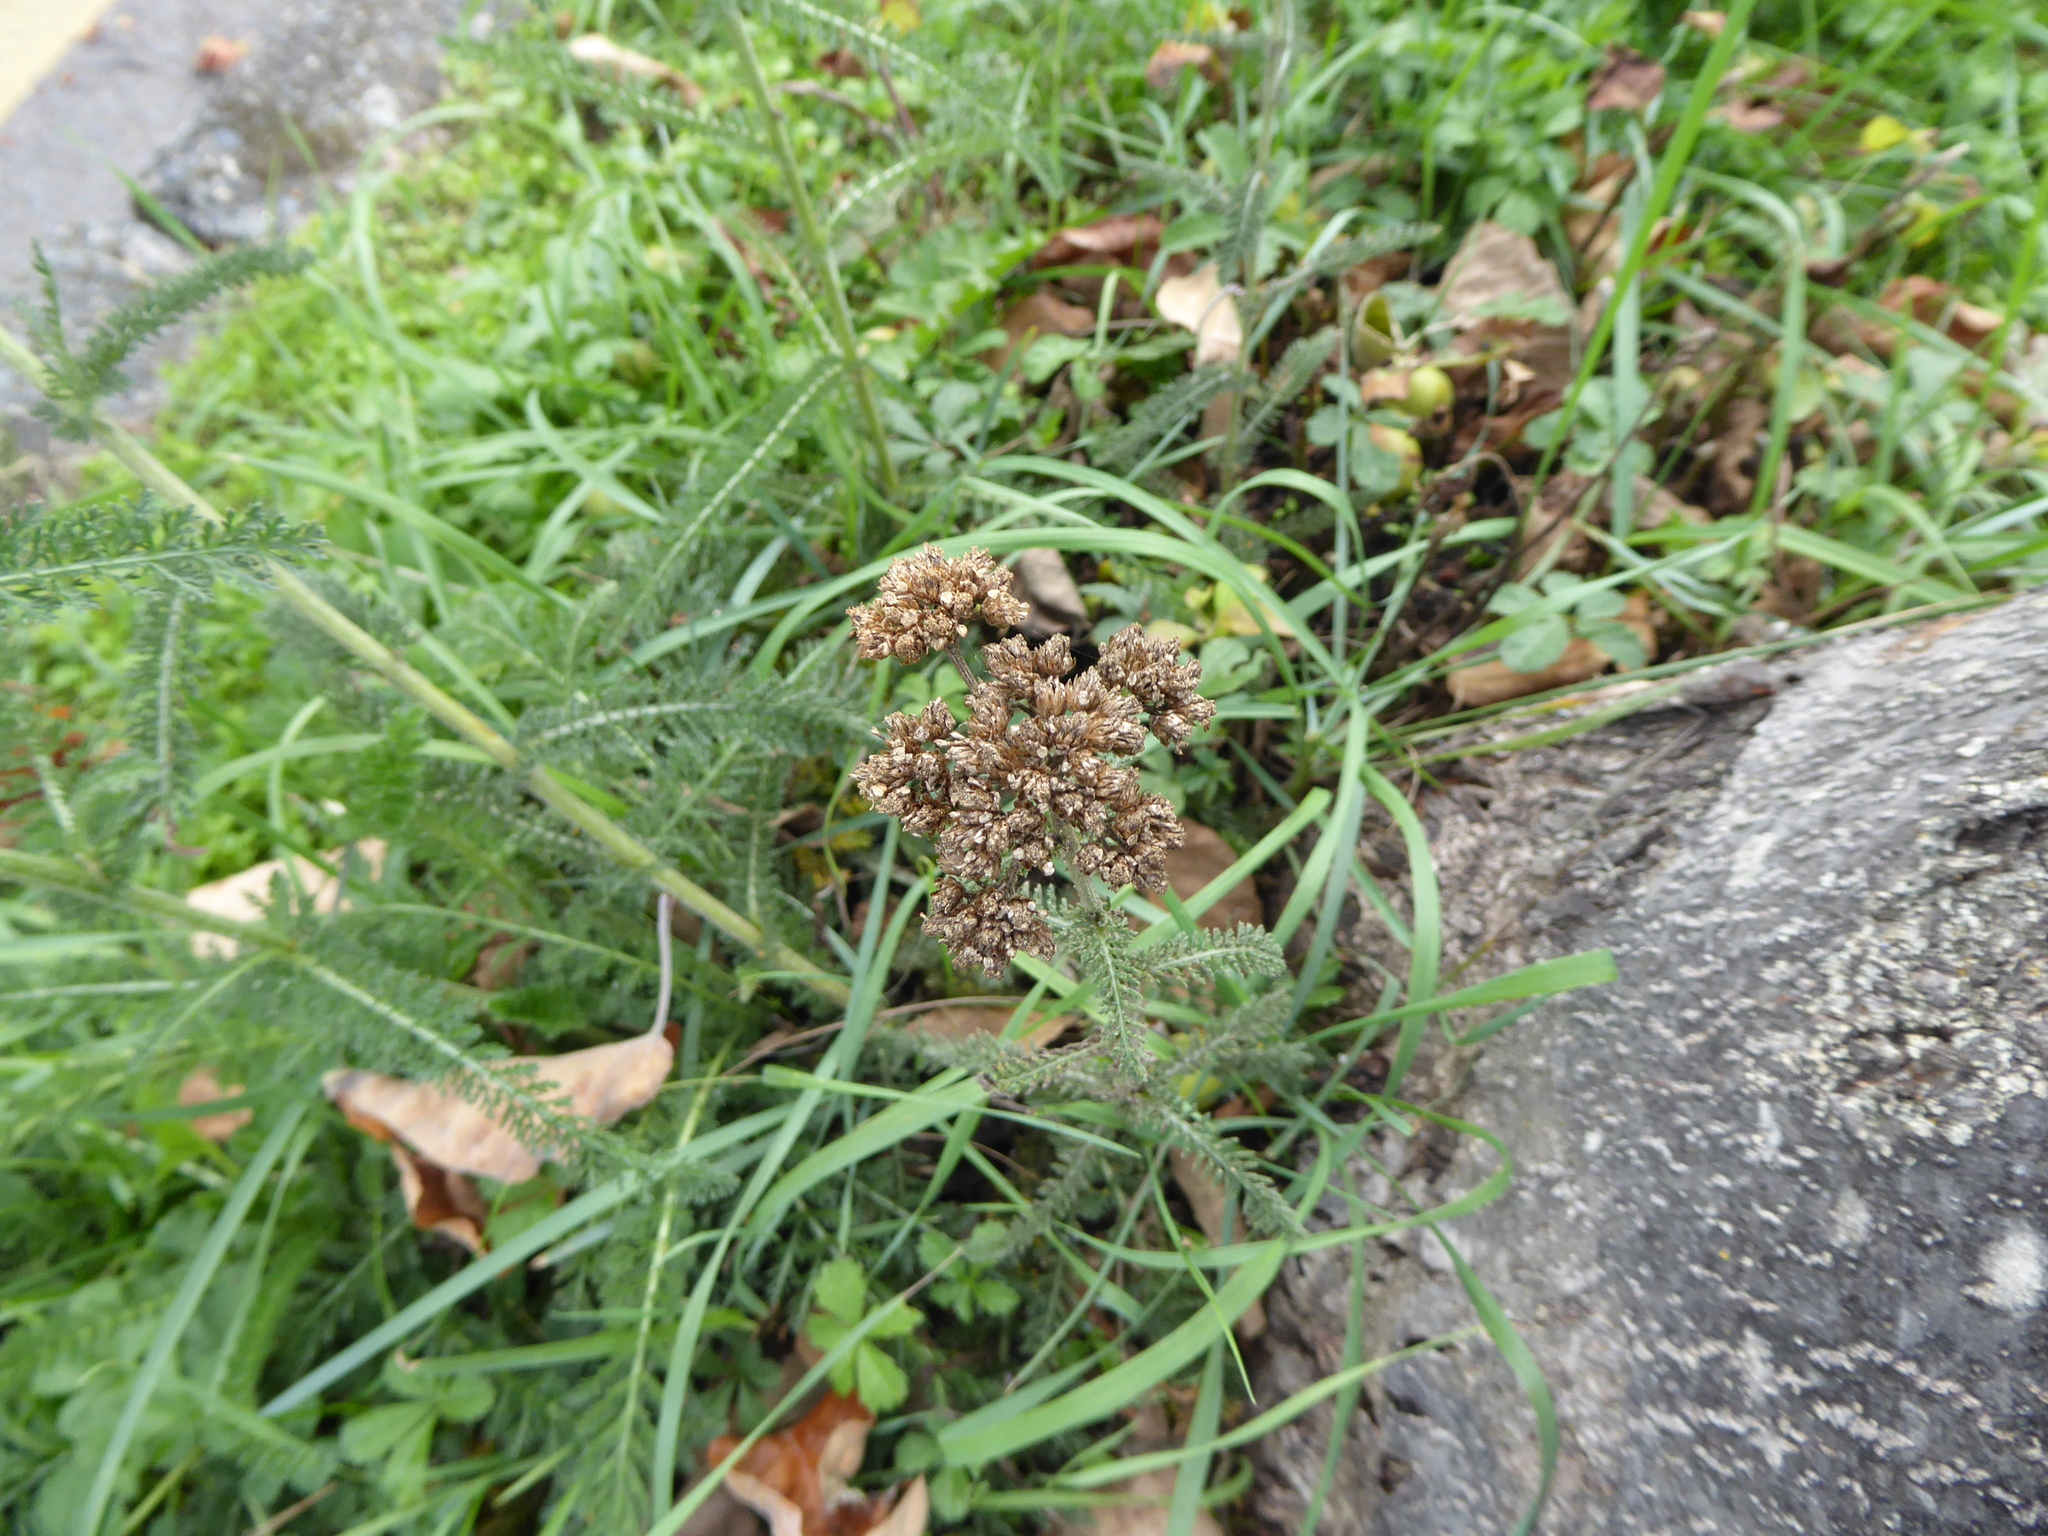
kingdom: Plantae
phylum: Tracheophyta
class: Magnoliopsida
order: Asterales
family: Asteraceae
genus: Achillea
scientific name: Achillea millefolium
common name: Yarrow
